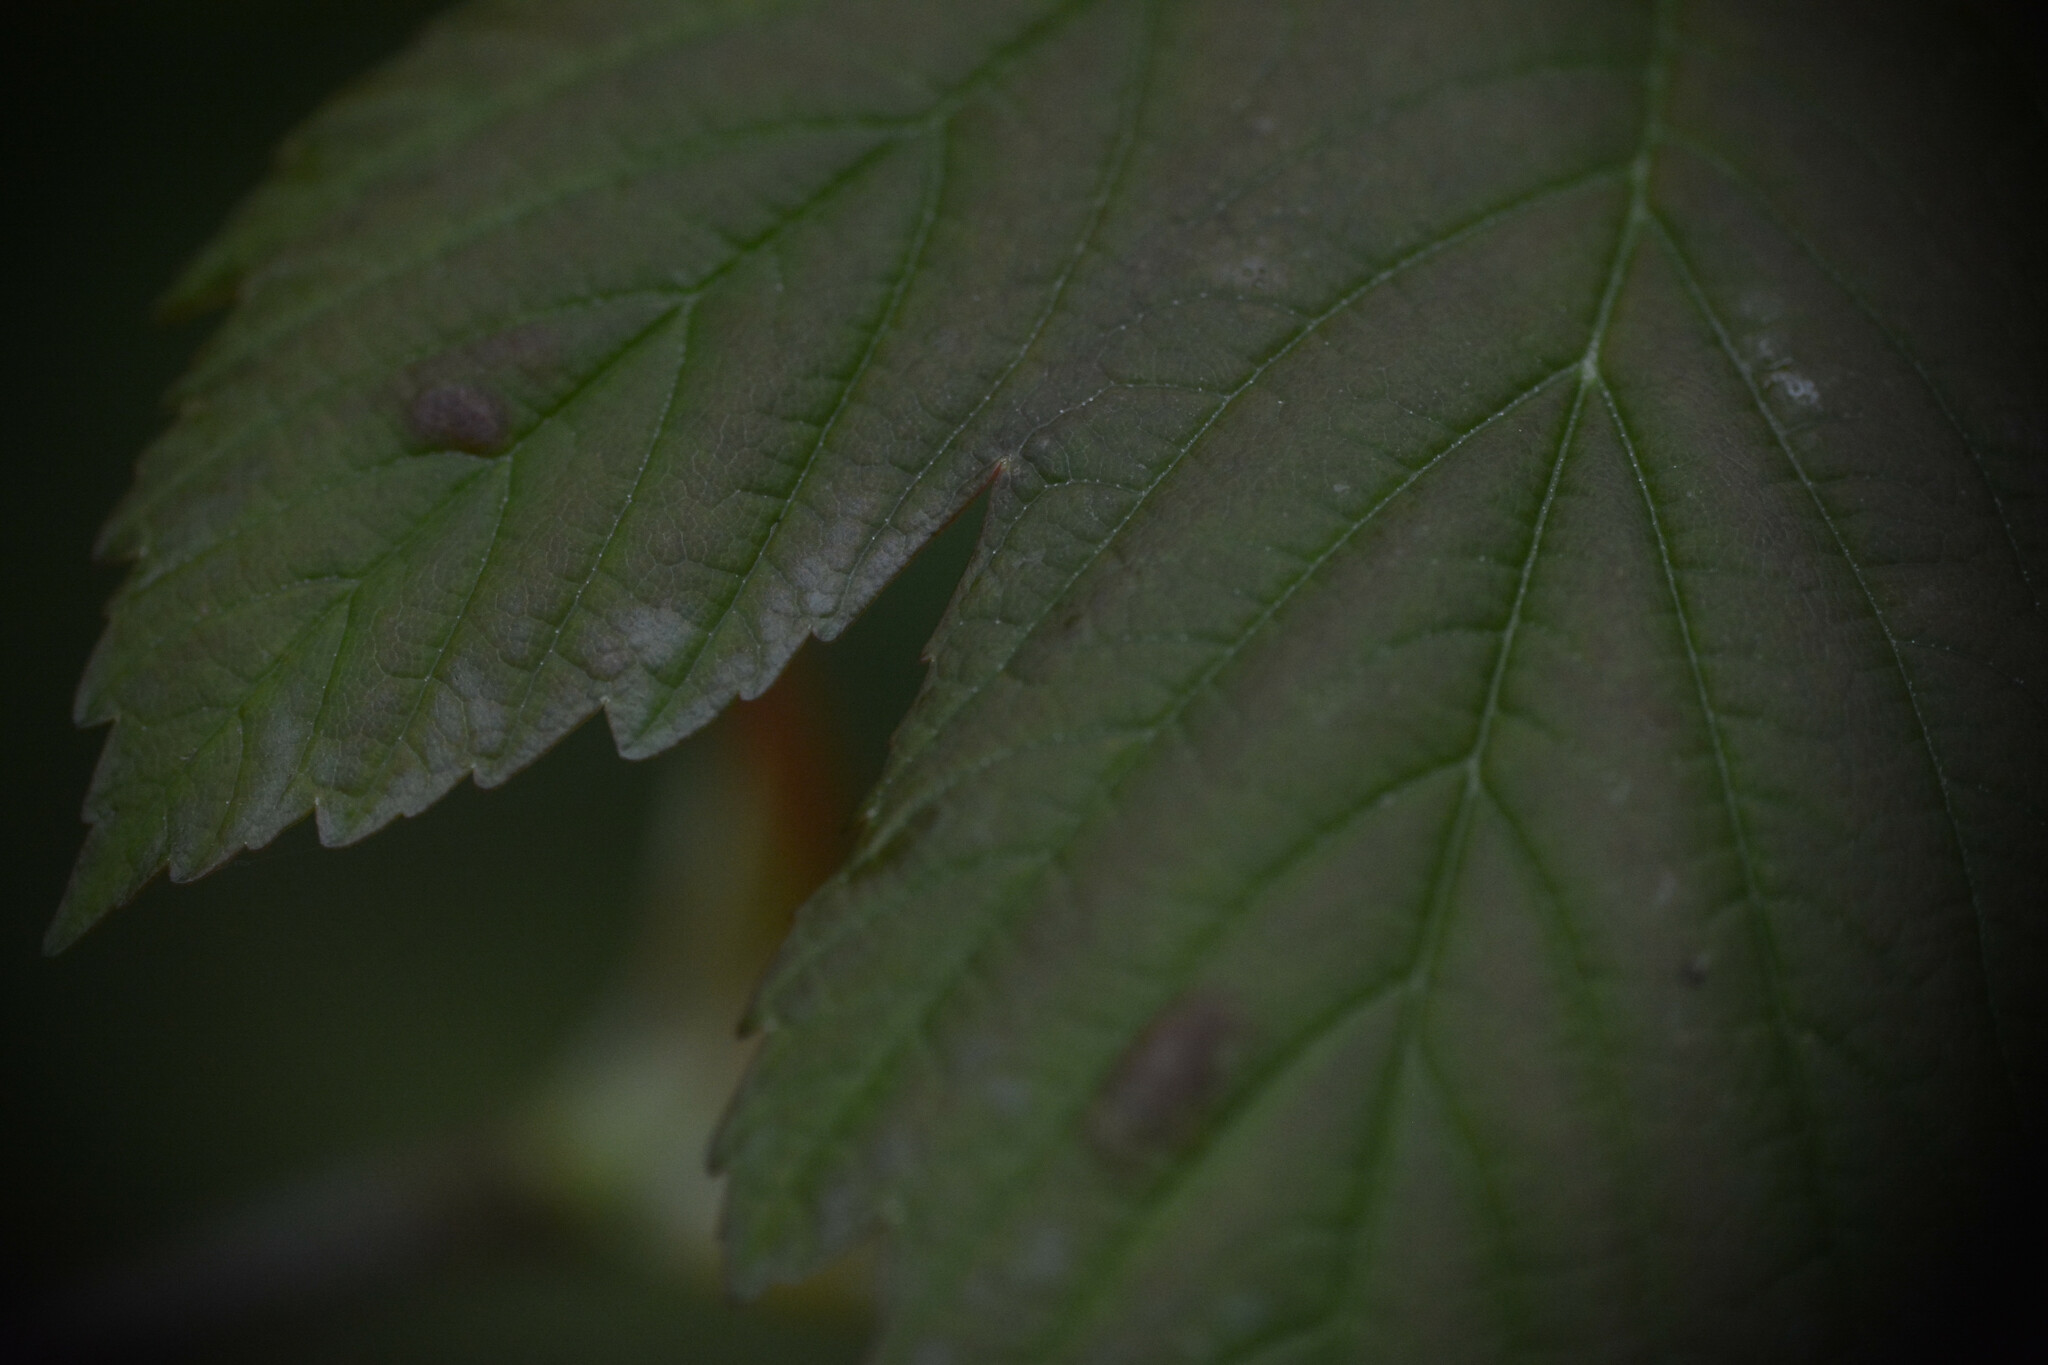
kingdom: Animalia
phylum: Arthropoda
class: Arachnida
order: Trombidiformes
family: Eriophyidae
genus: Aceria
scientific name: Aceria pseudoplatani
